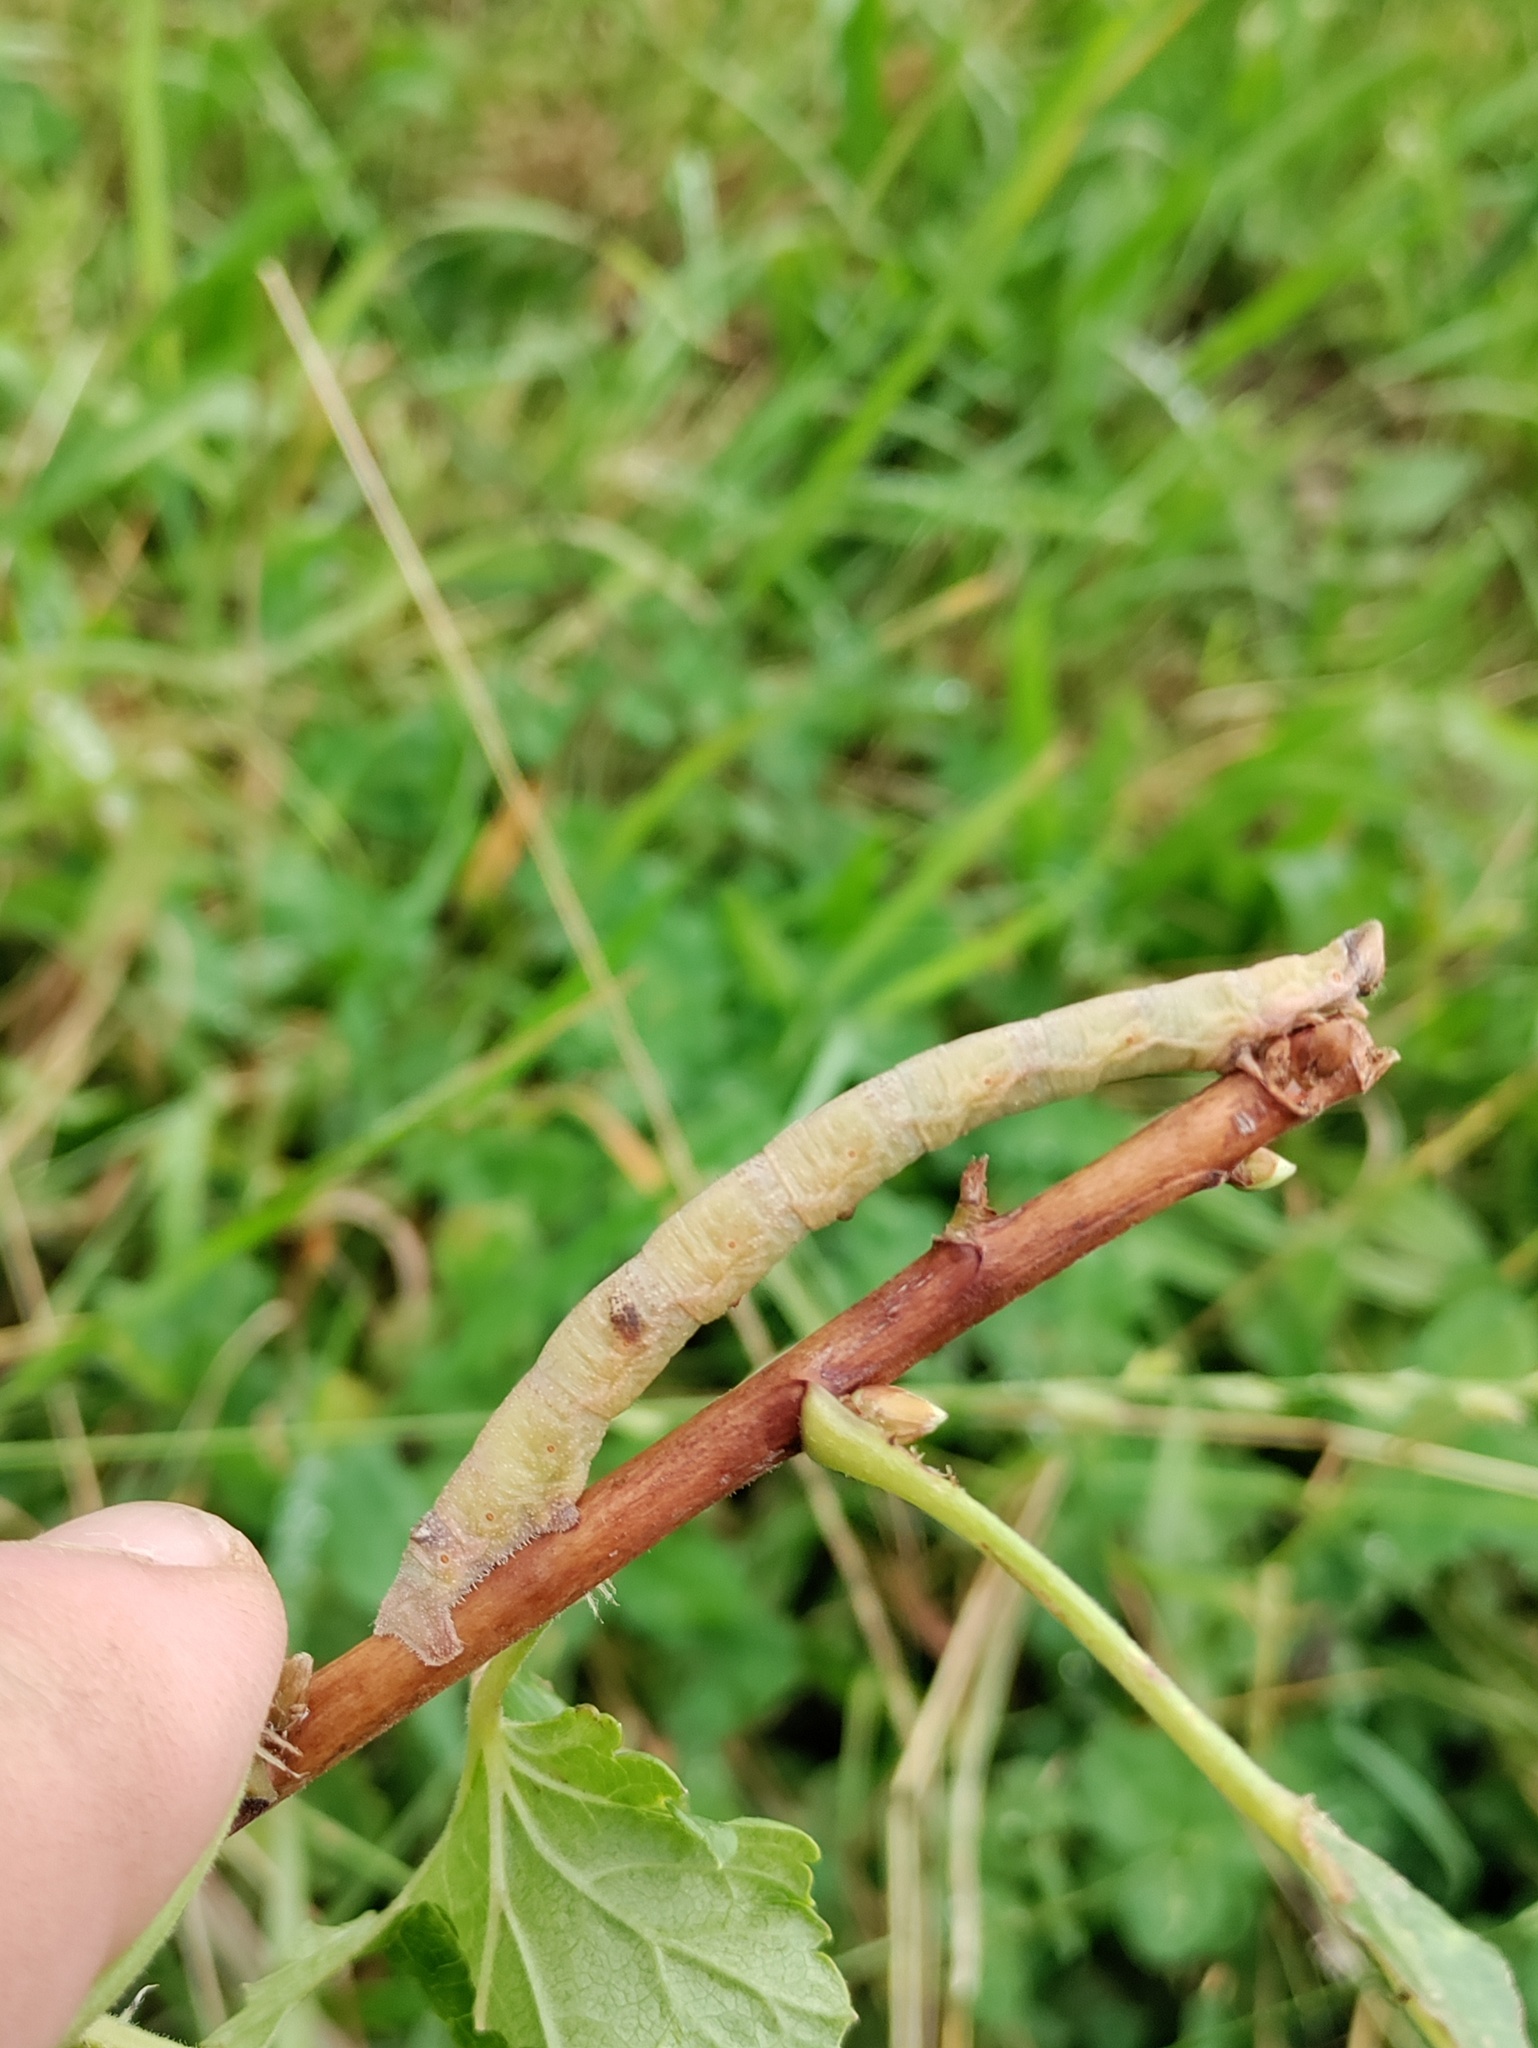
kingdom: Animalia
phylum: Arthropoda
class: Insecta
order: Lepidoptera
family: Geometridae
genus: Biston
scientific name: Biston betularia
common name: Peppered moth
